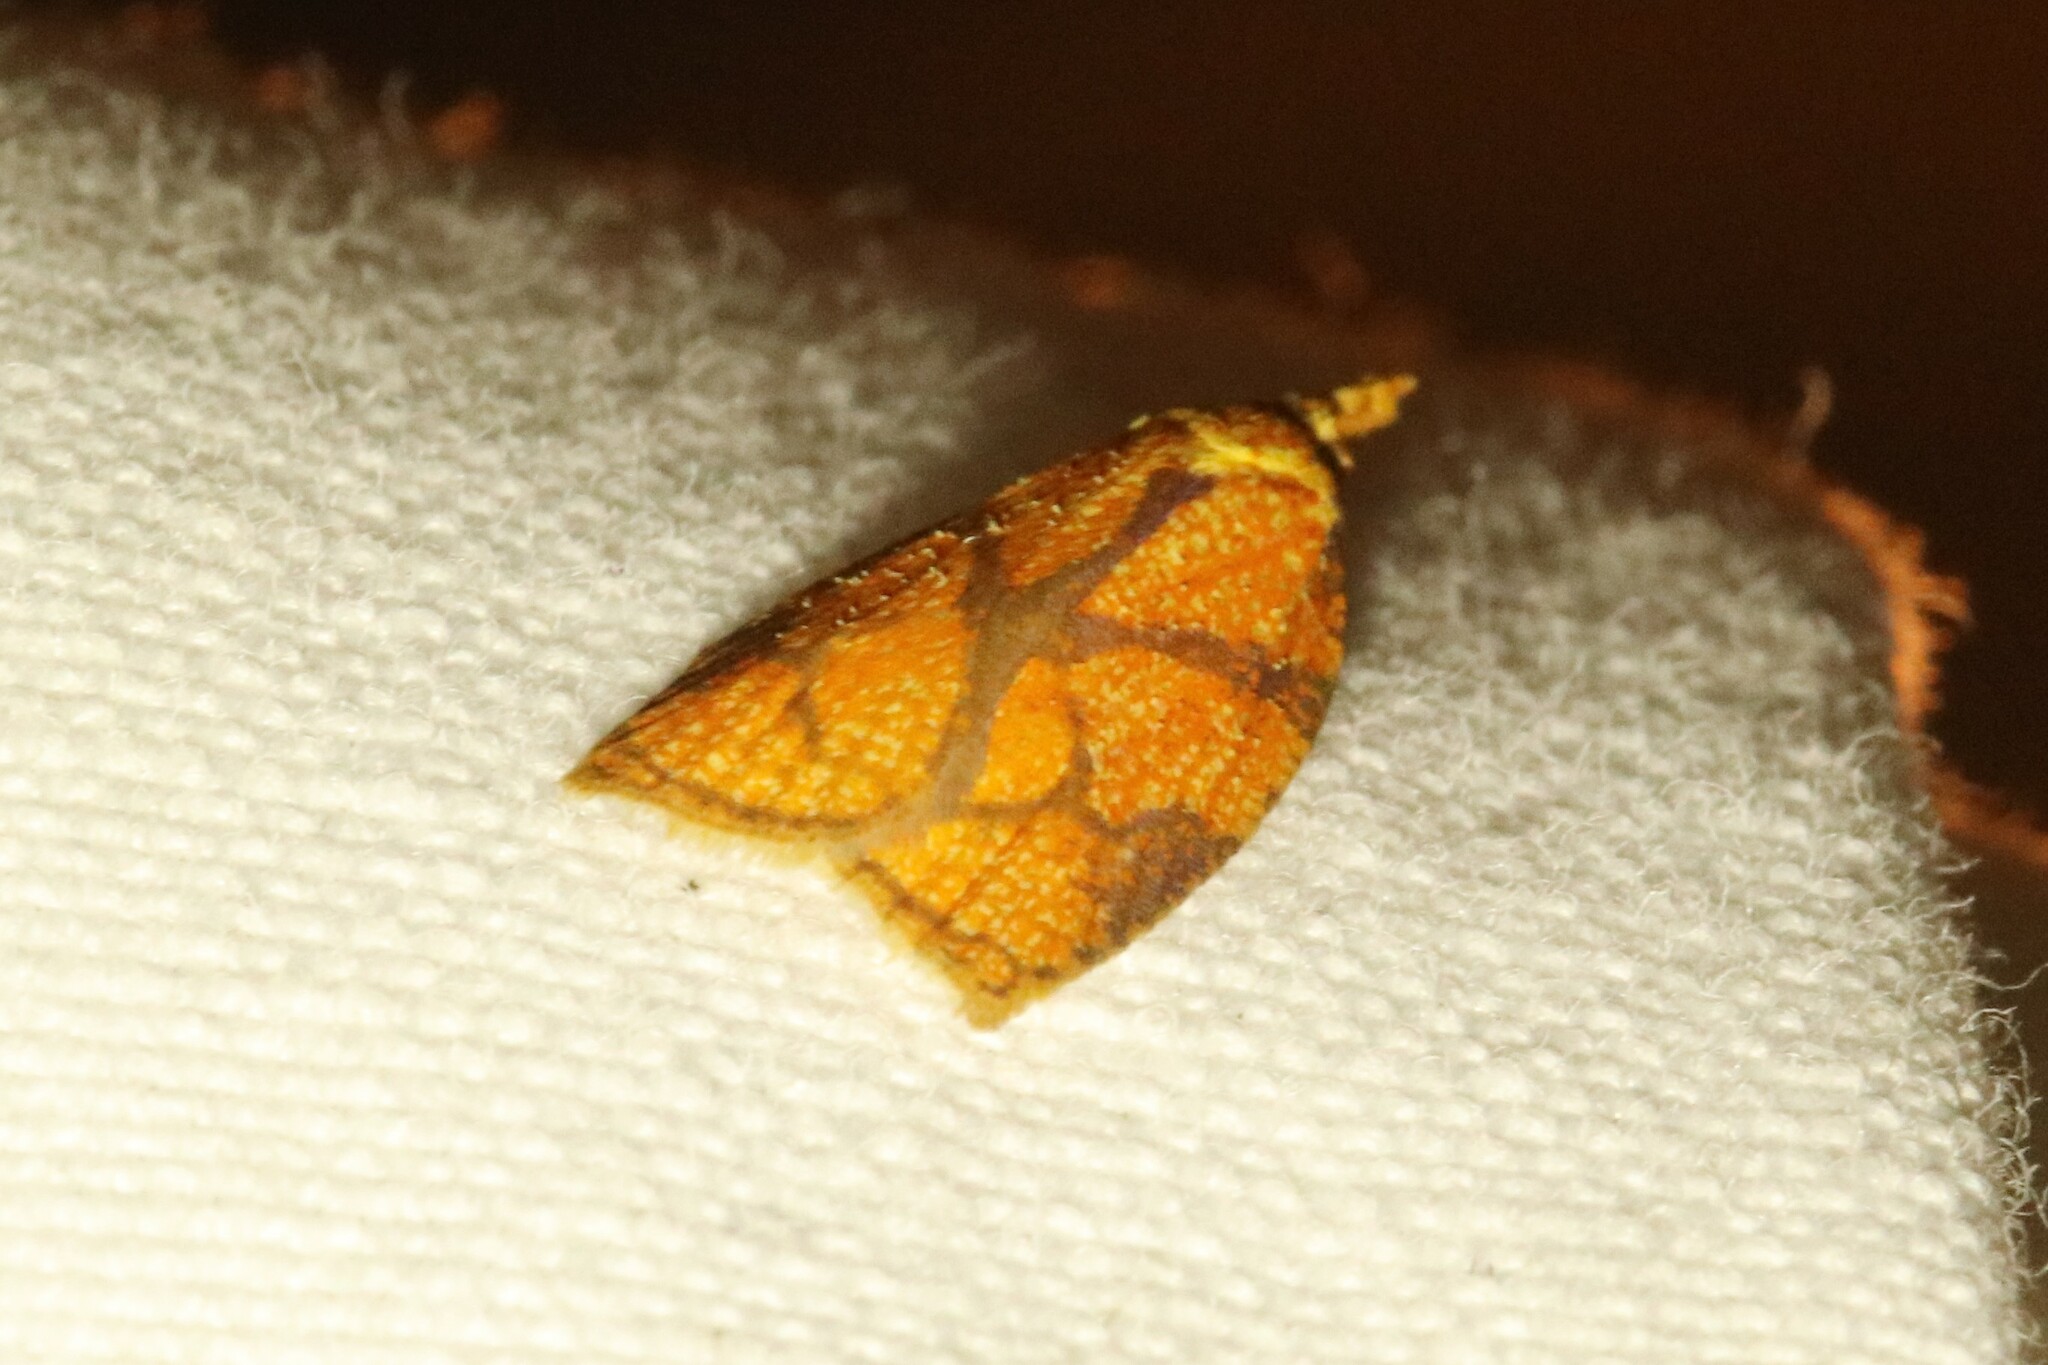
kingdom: Animalia
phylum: Arthropoda
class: Insecta
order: Lepidoptera
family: Tortricidae
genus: Cenopis
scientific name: Cenopis reticulatana
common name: Reticulated fruitworm moth
